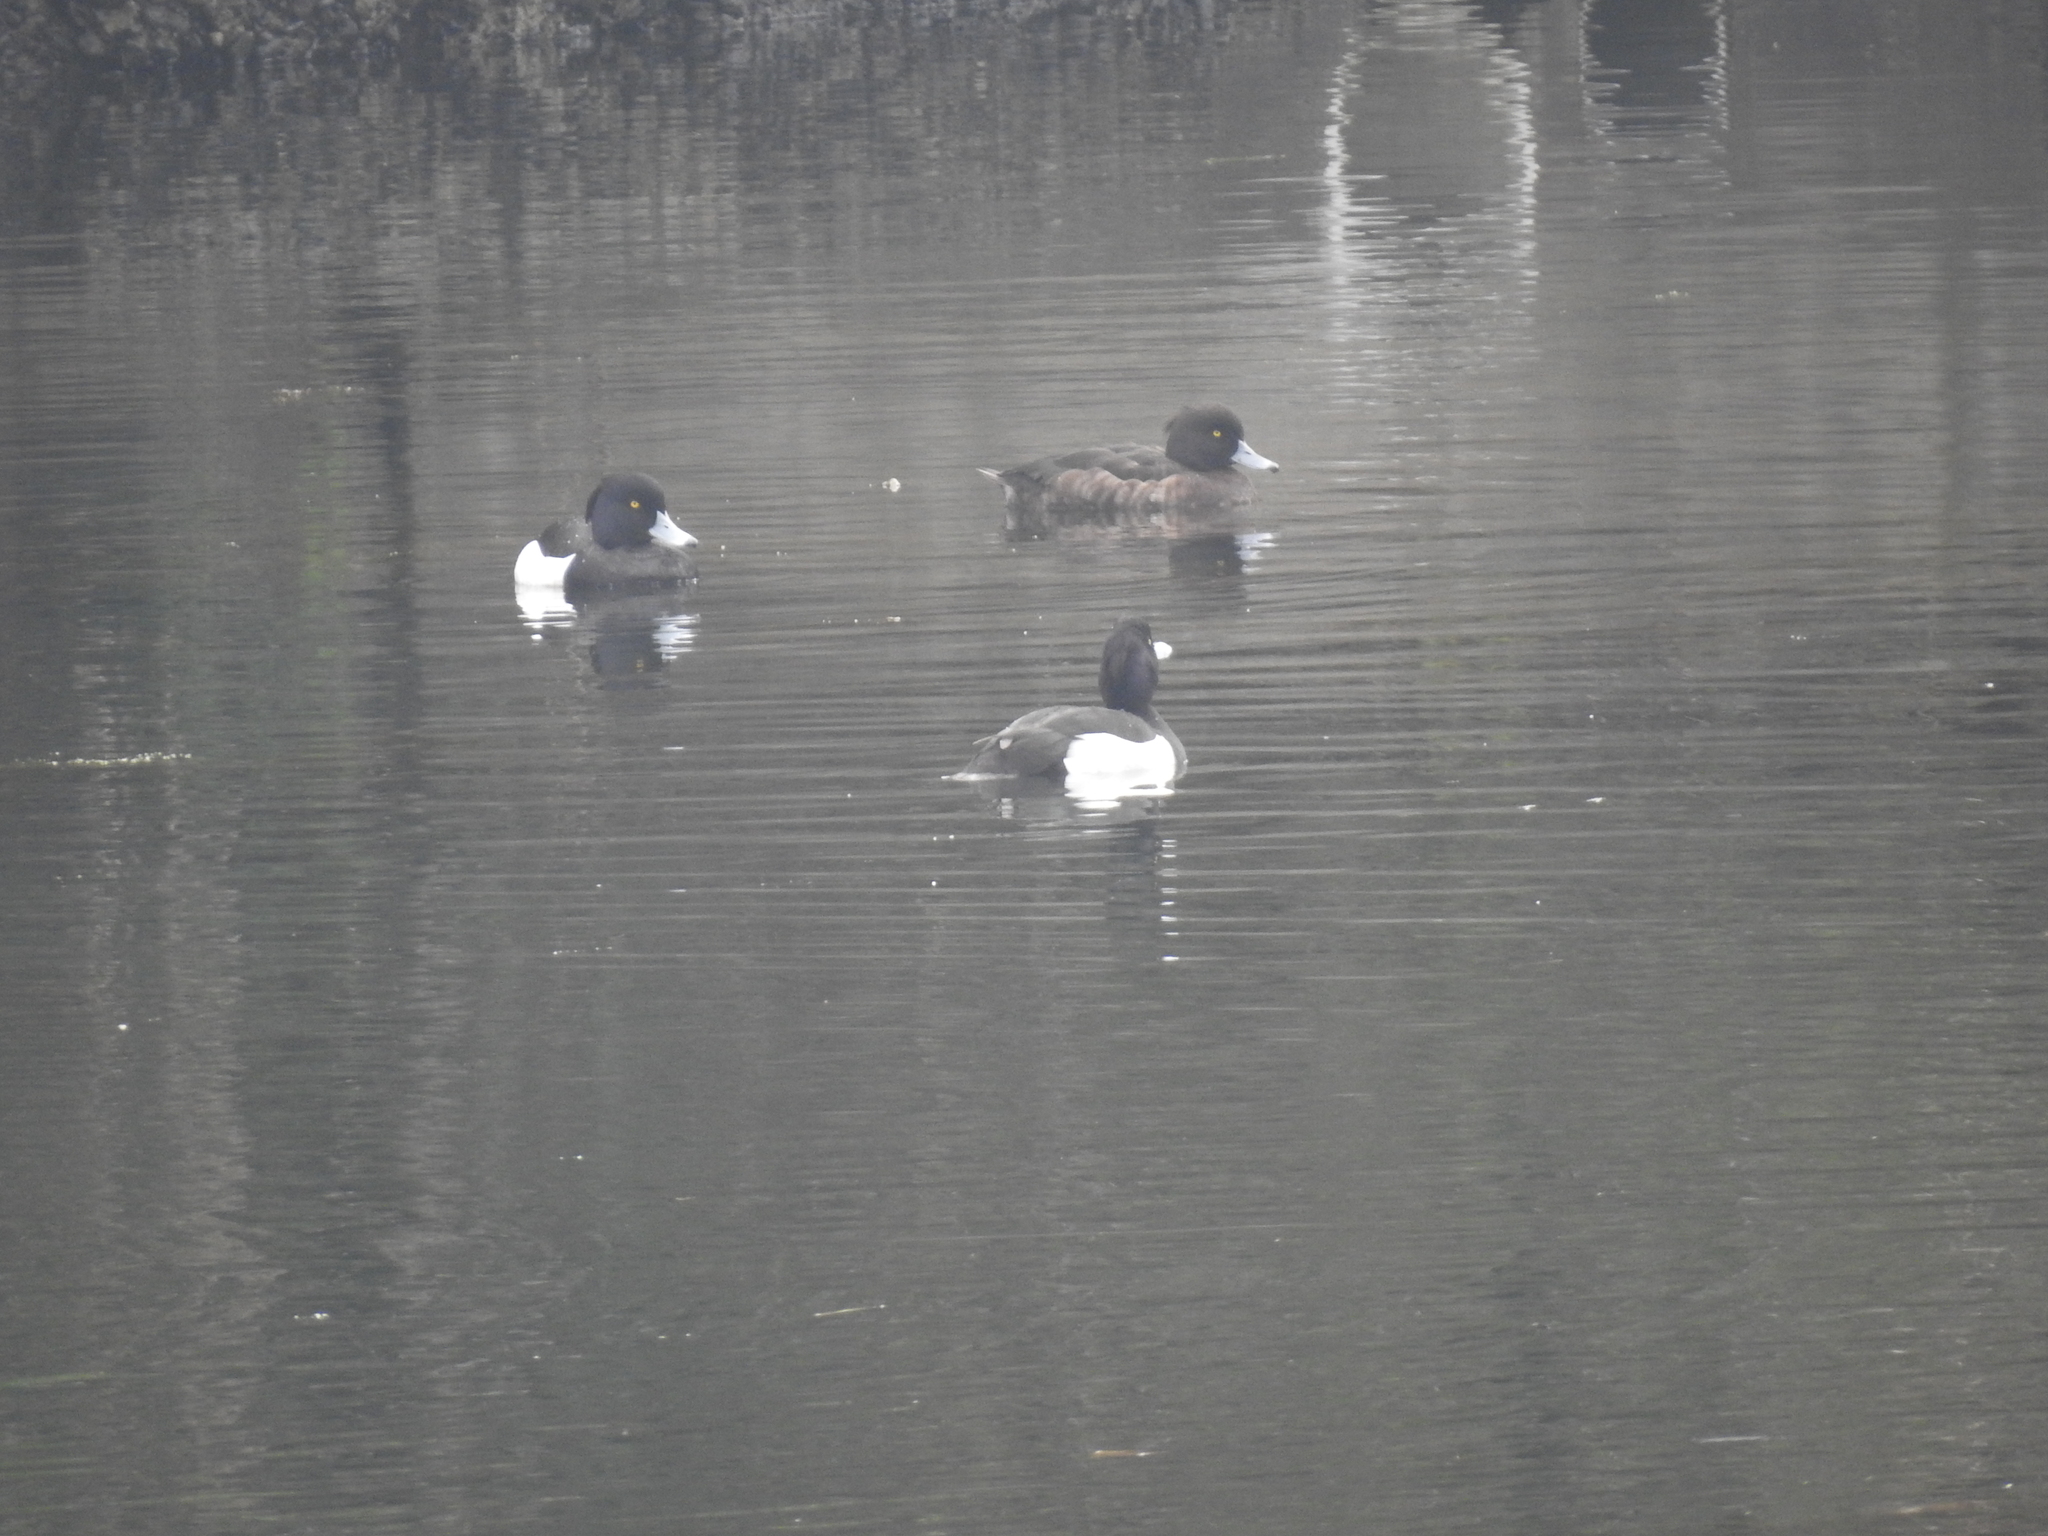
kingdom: Animalia
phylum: Chordata
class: Aves
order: Anseriformes
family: Anatidae
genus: Aythya
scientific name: Aythya fuligula
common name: Tufted duck
